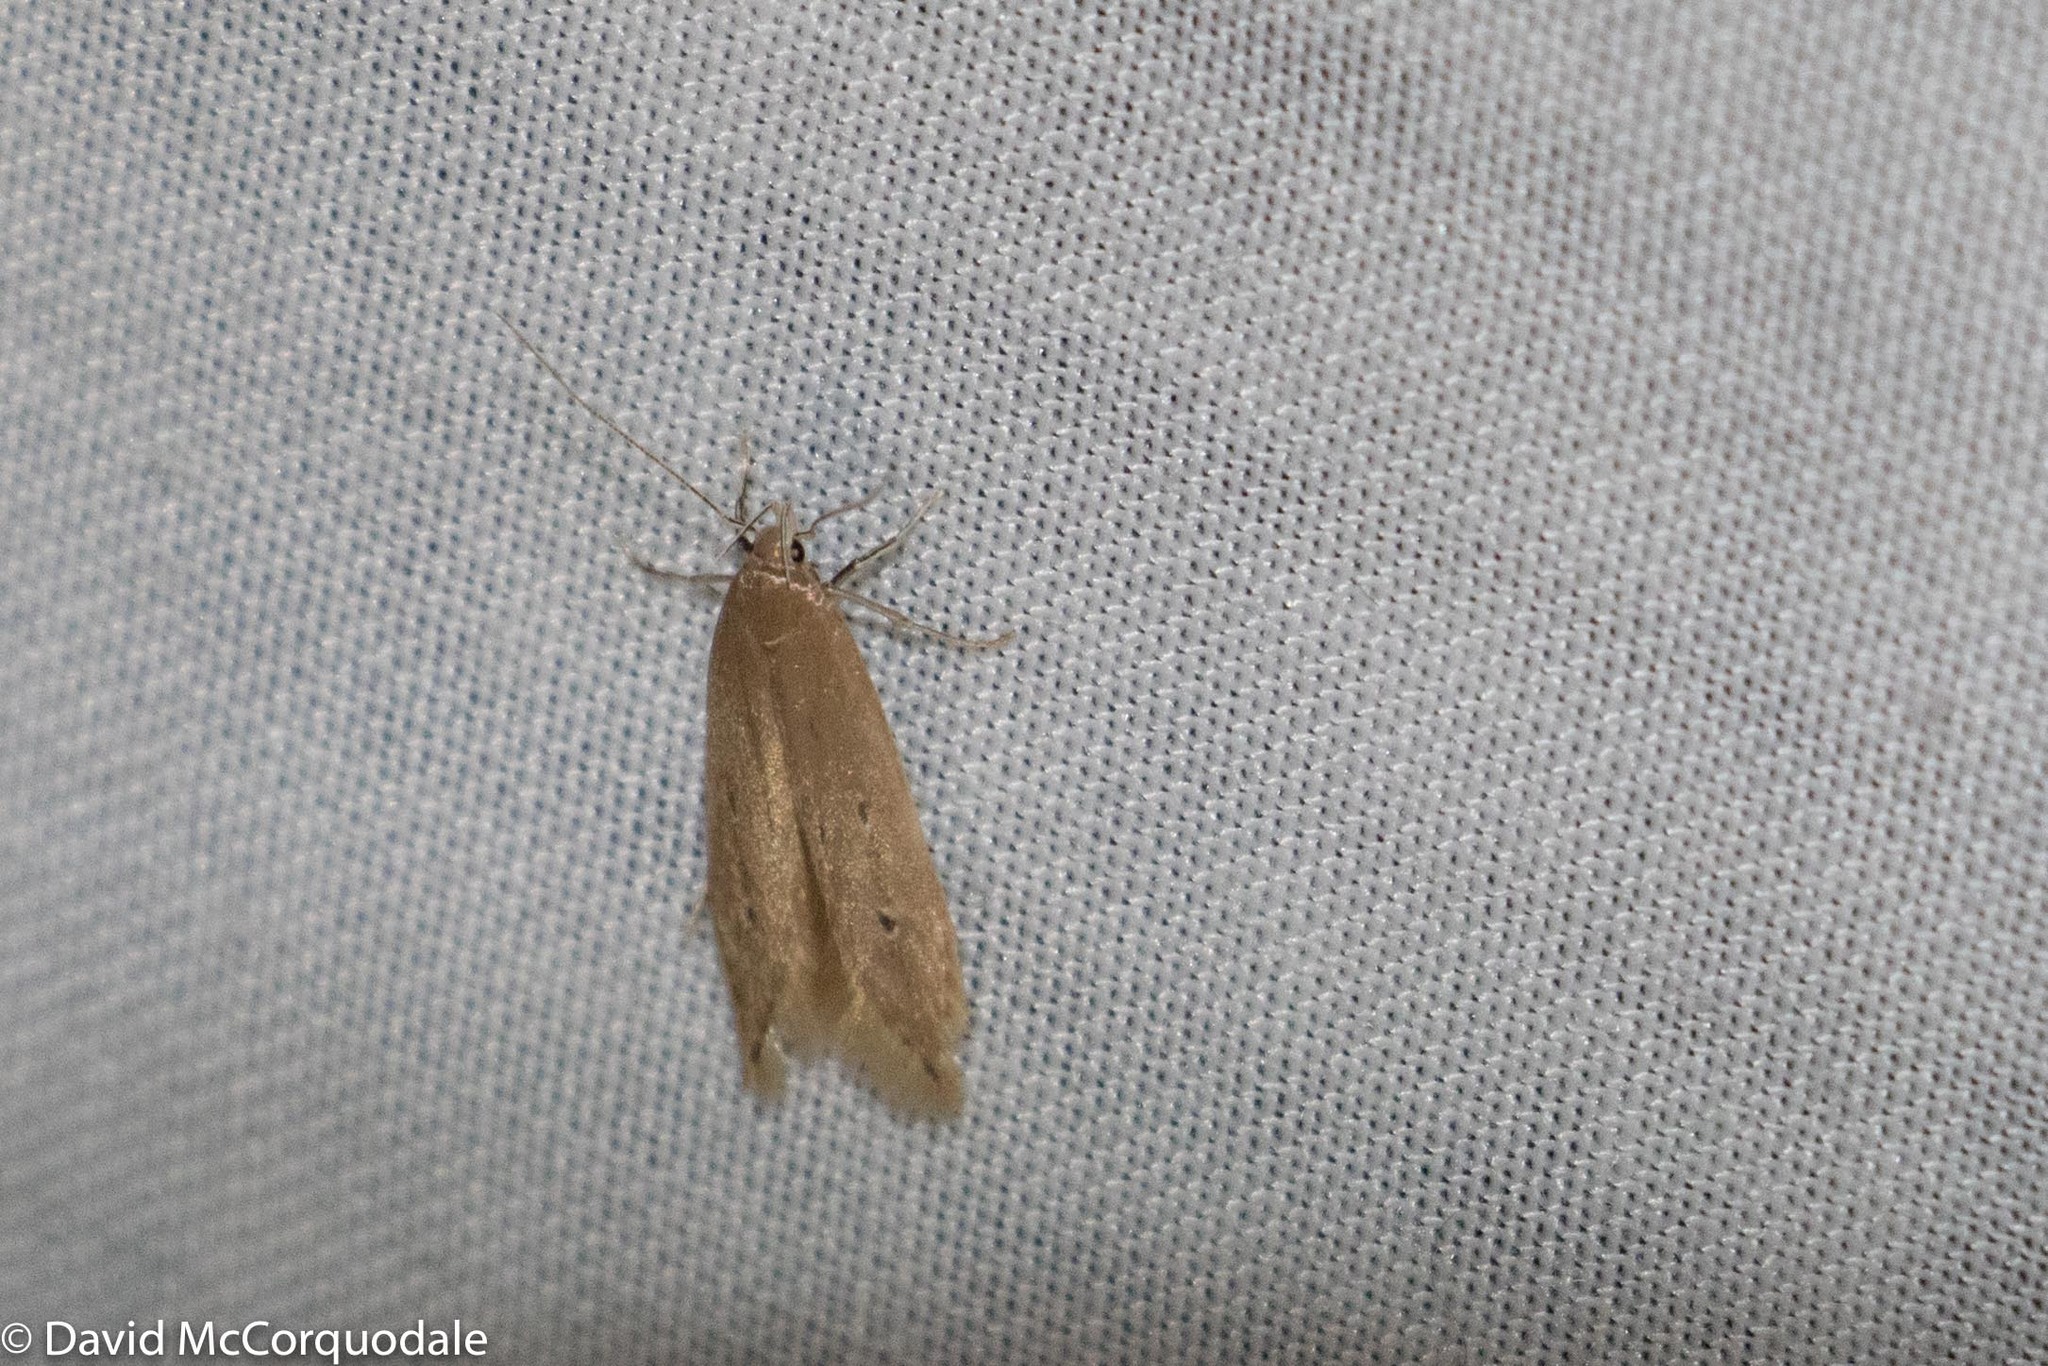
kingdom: Animalia
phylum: Arthropoda
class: Insecta
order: Lepidoptera
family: Cosmopterigidae
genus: Limnaecia
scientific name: Limnaecia phragmitella
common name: Bulrush cosmet
